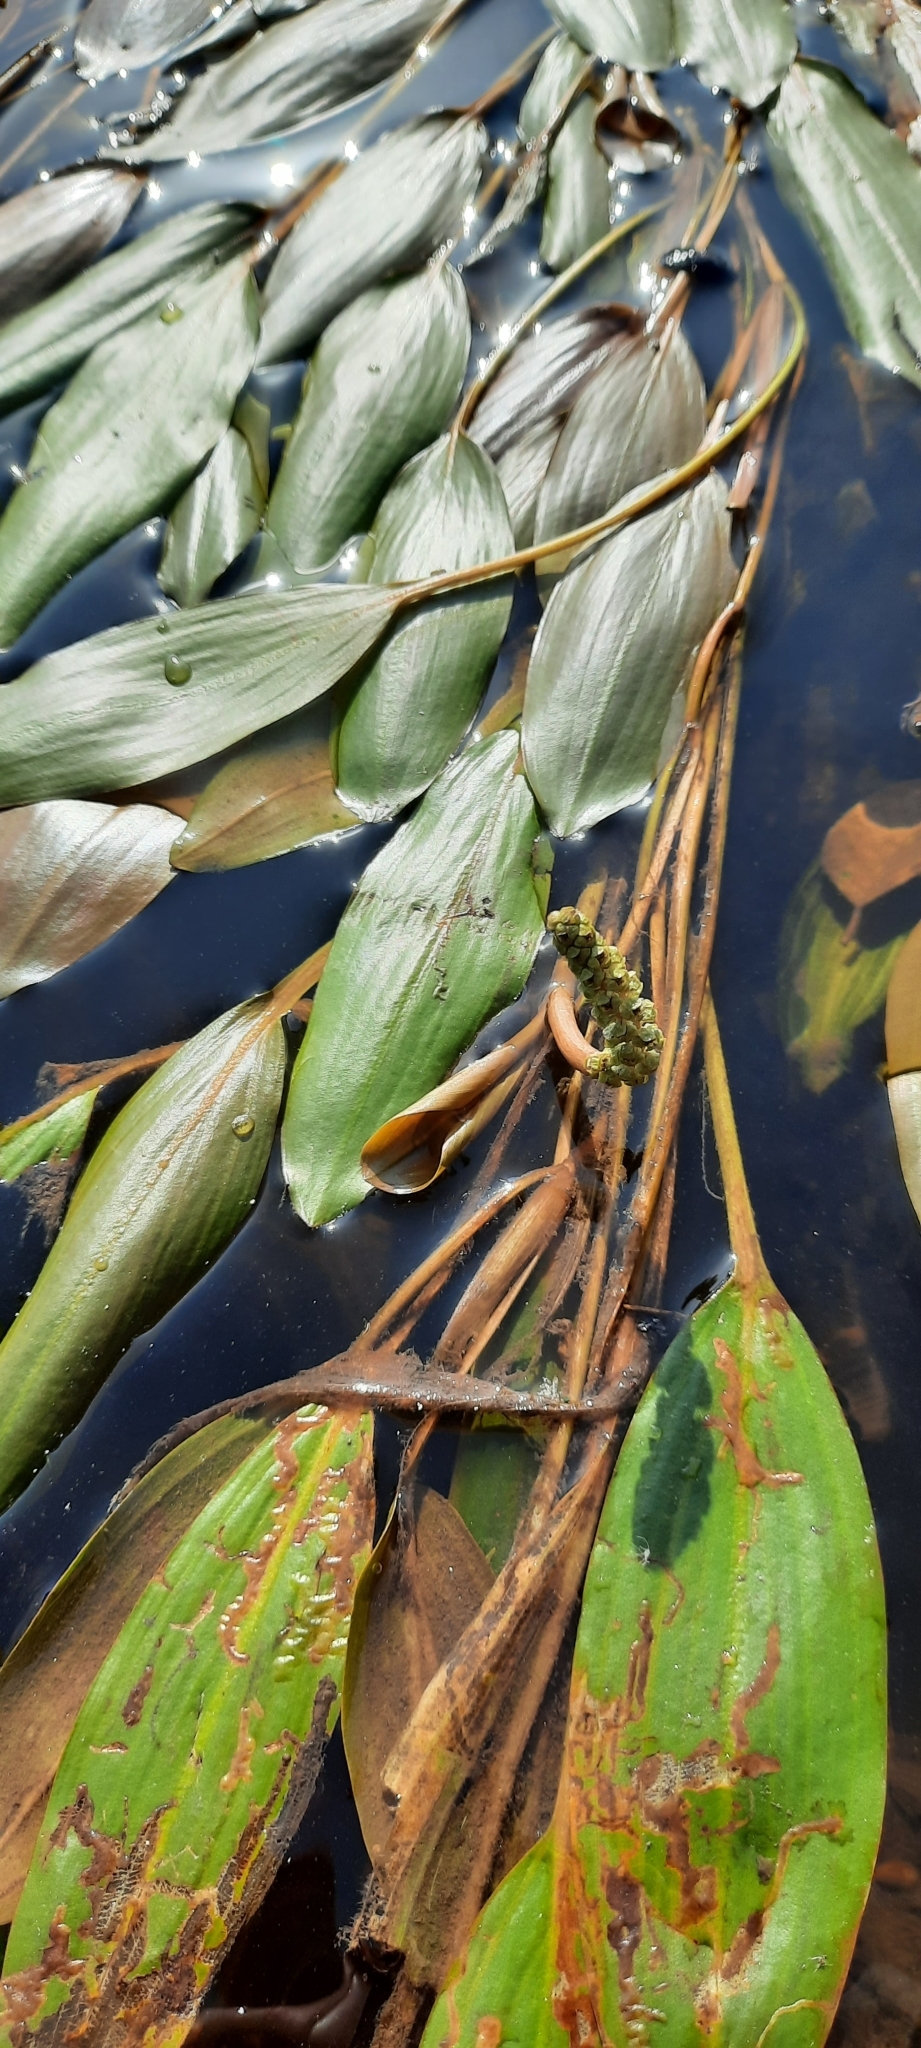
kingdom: Plantae
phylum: Tracheophyta
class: Liliopsida
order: Alismatales
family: Potamogetonaceae
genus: Potamogeton
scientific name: Potamogeton nodosus
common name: Loddon pondweed
